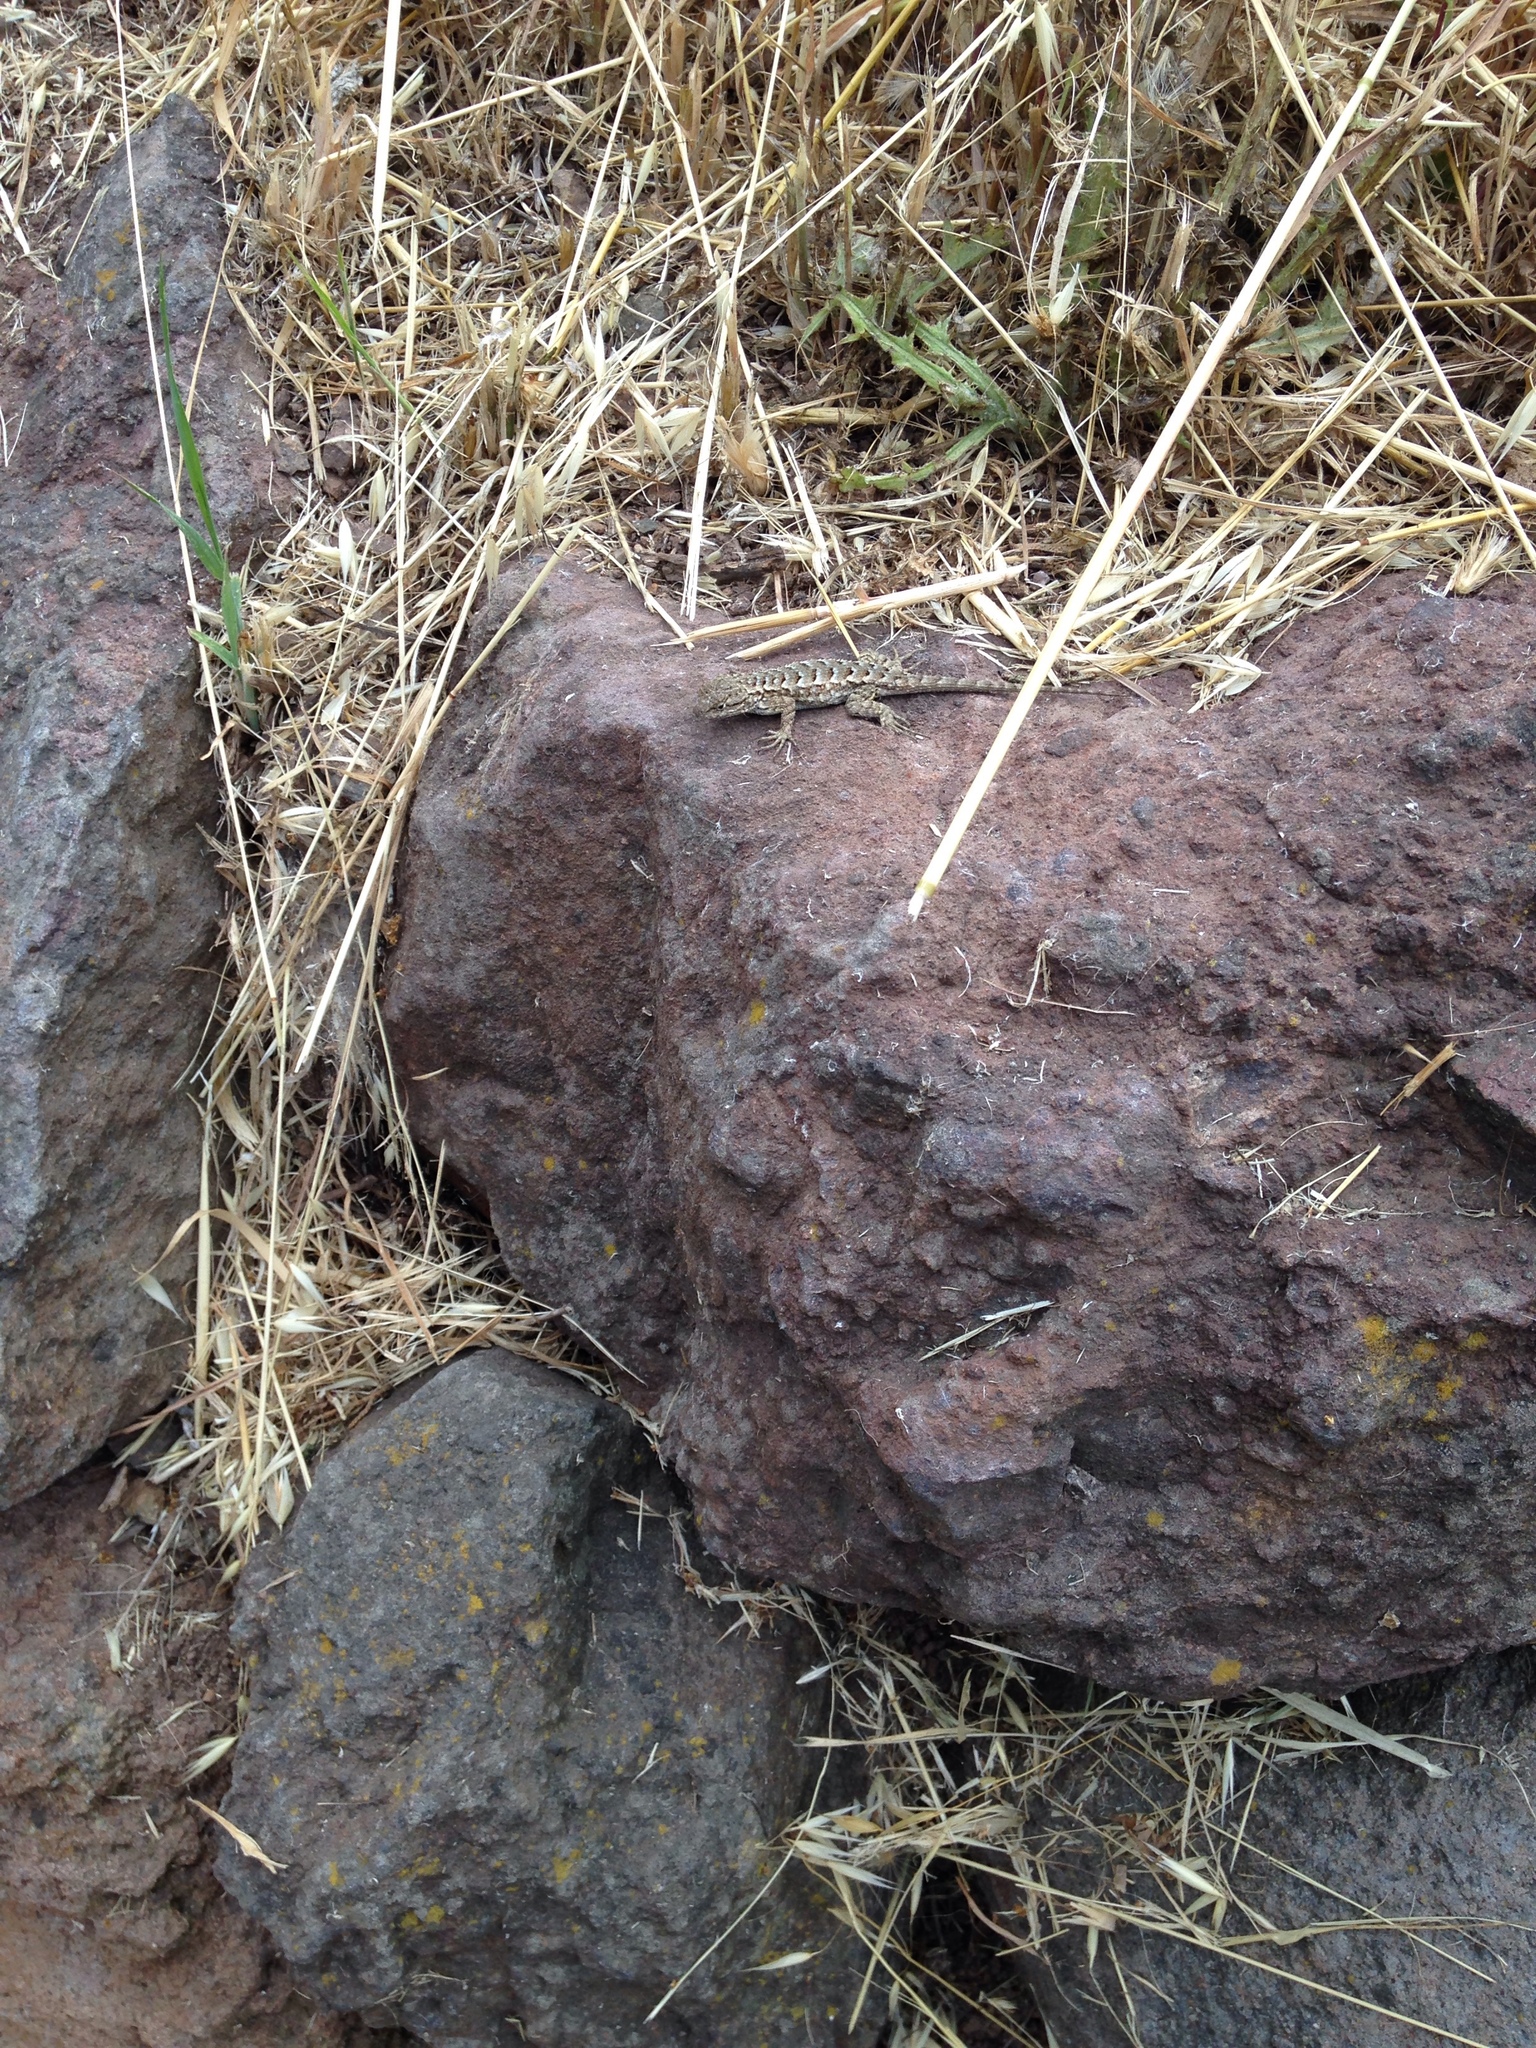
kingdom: Animalia
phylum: Chordata
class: Squamata
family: Phrynosomatidae
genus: Sceloporus
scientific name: Sceloporus occidentalis
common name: Western fence lizard
